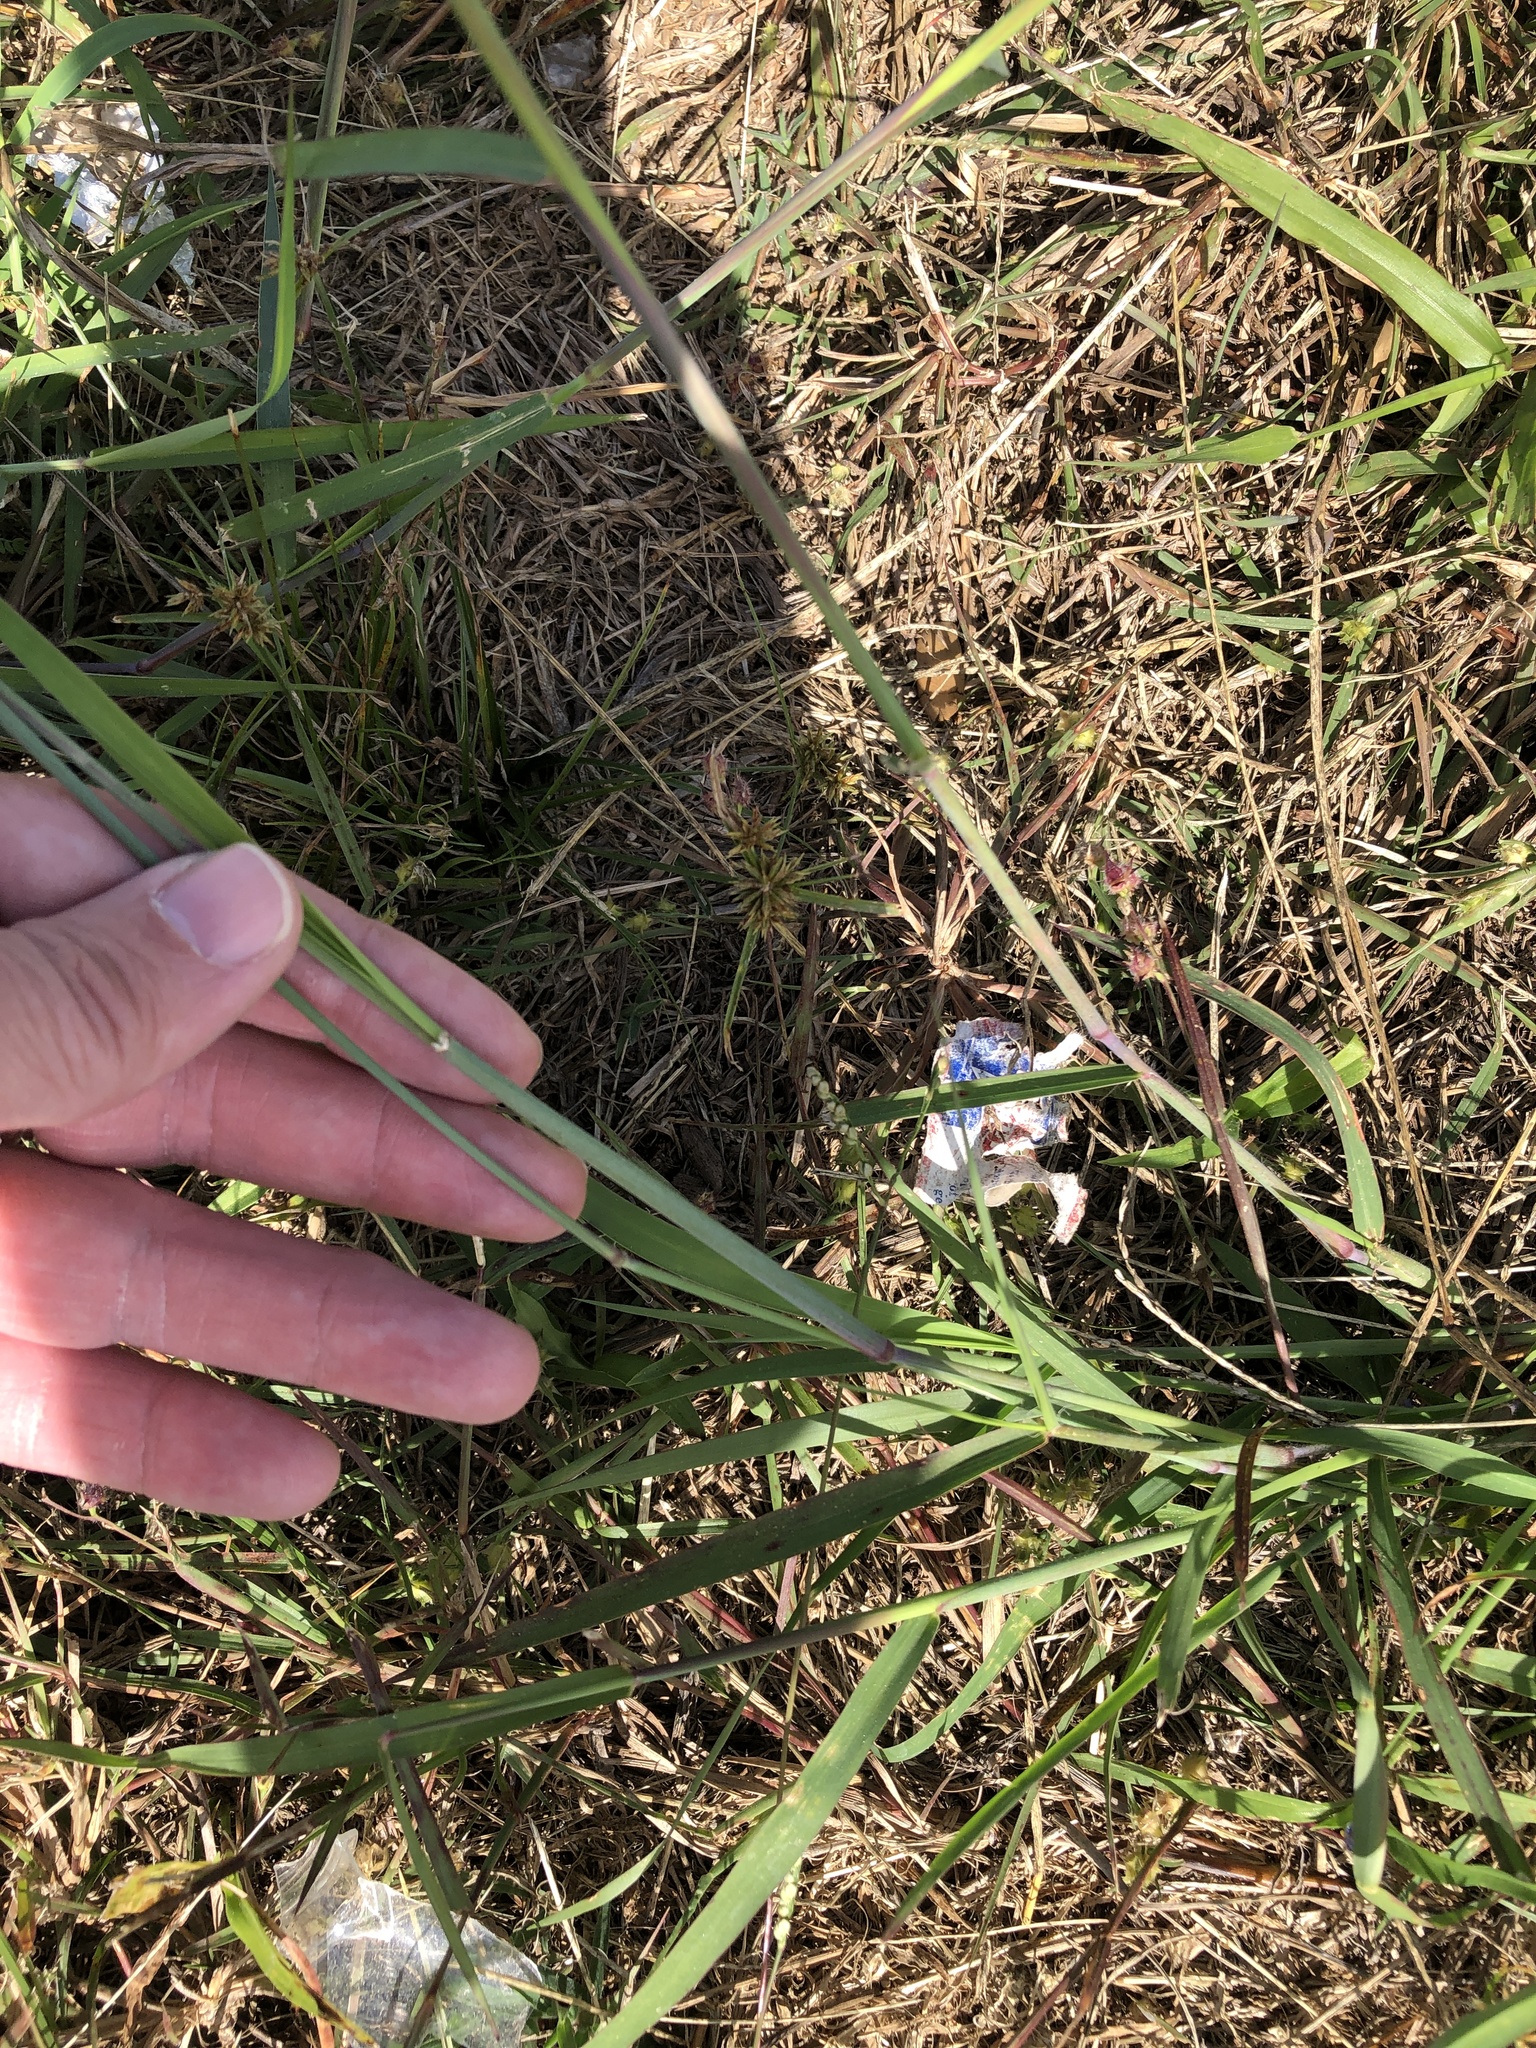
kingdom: Plantae
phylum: Tracheophyta
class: Liliopsida
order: Poales
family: Poaceae
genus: Melinis
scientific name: Melinis repens
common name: Rose natal grass
